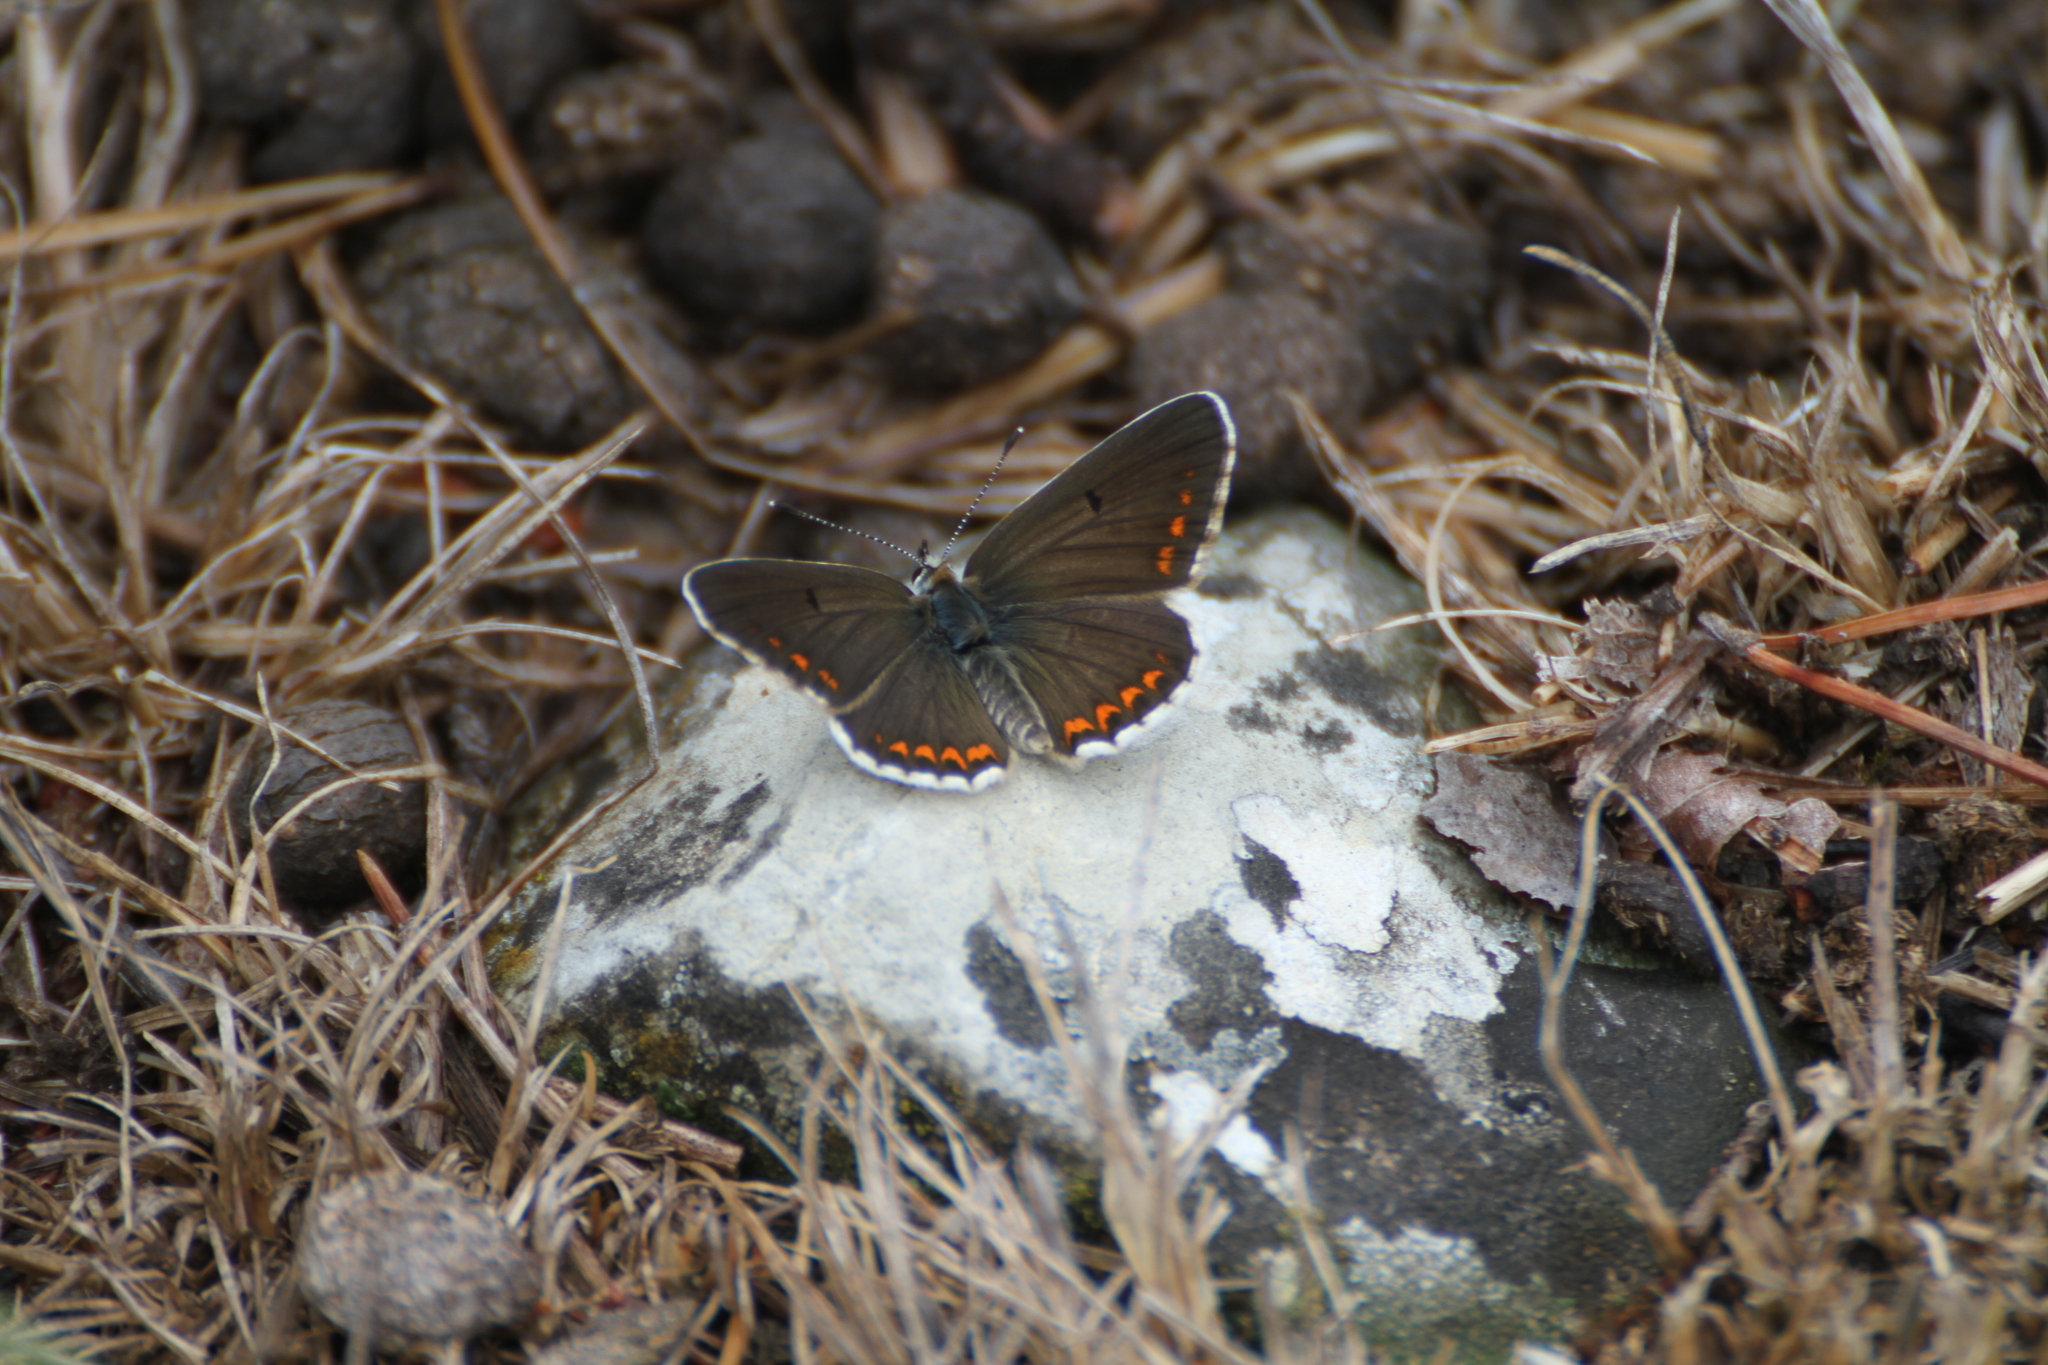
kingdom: Animalia
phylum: Arthropoda
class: Insecta
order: Lepidoptera
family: Lycaenidae
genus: Aricia
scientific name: Aricia agestis
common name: Brown argus
